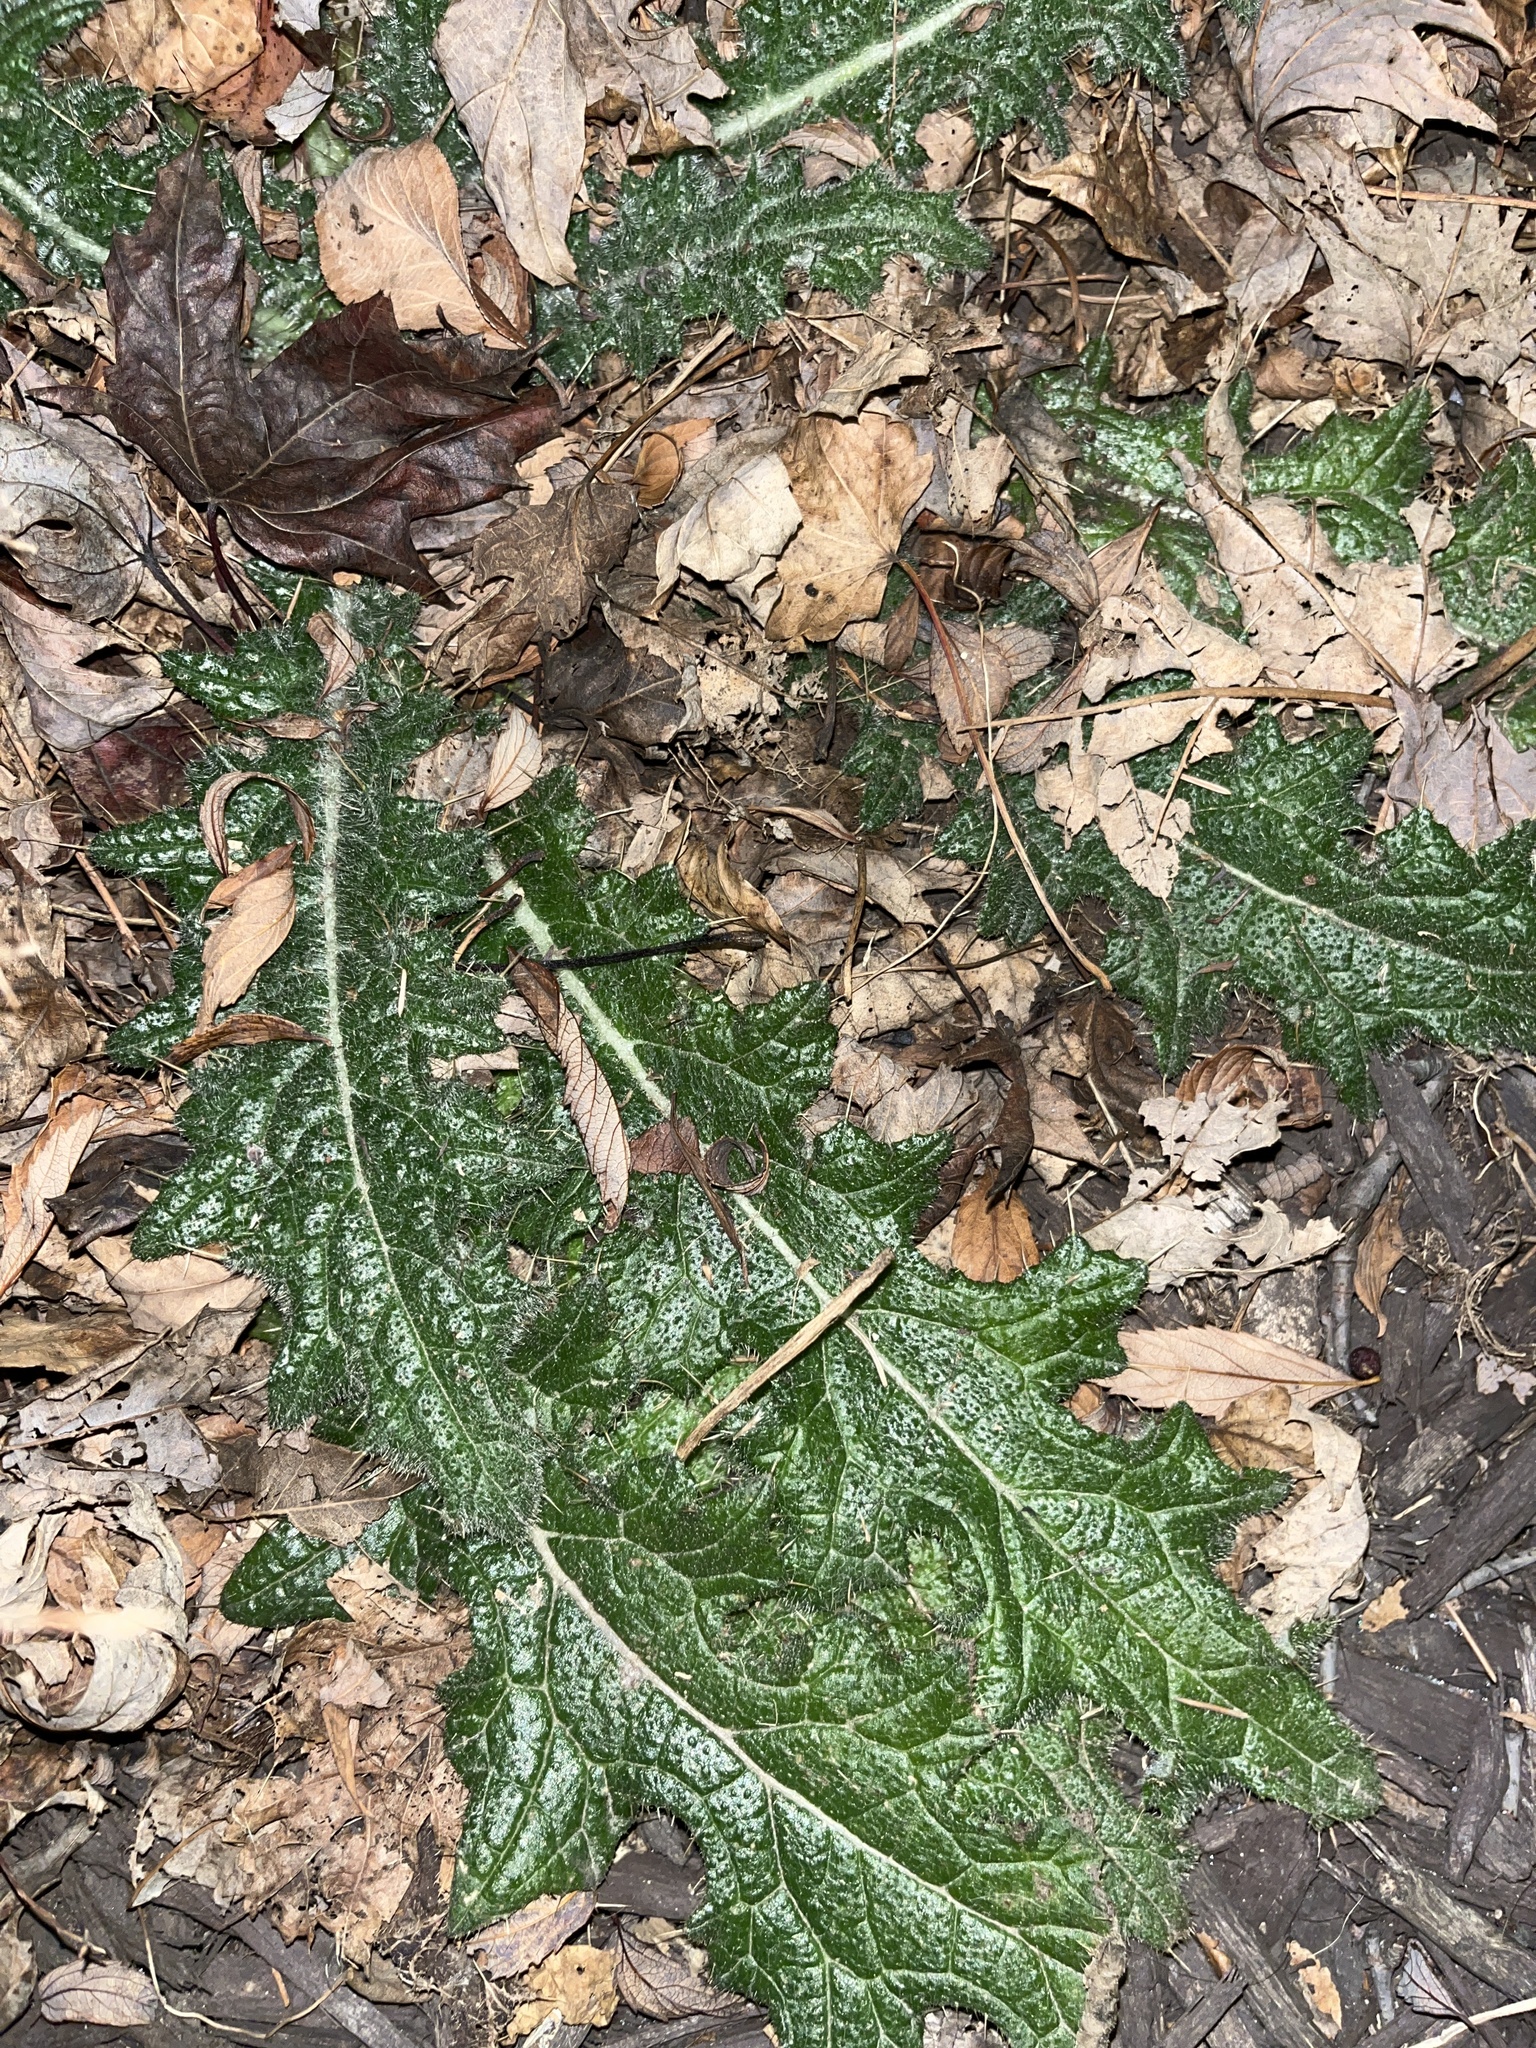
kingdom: Plantae
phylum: Tracheophyta
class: Magnoliopsida
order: Asterales
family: Asteraceae
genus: Cirsium
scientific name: Cirsium vulgare
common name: Bull thistle
